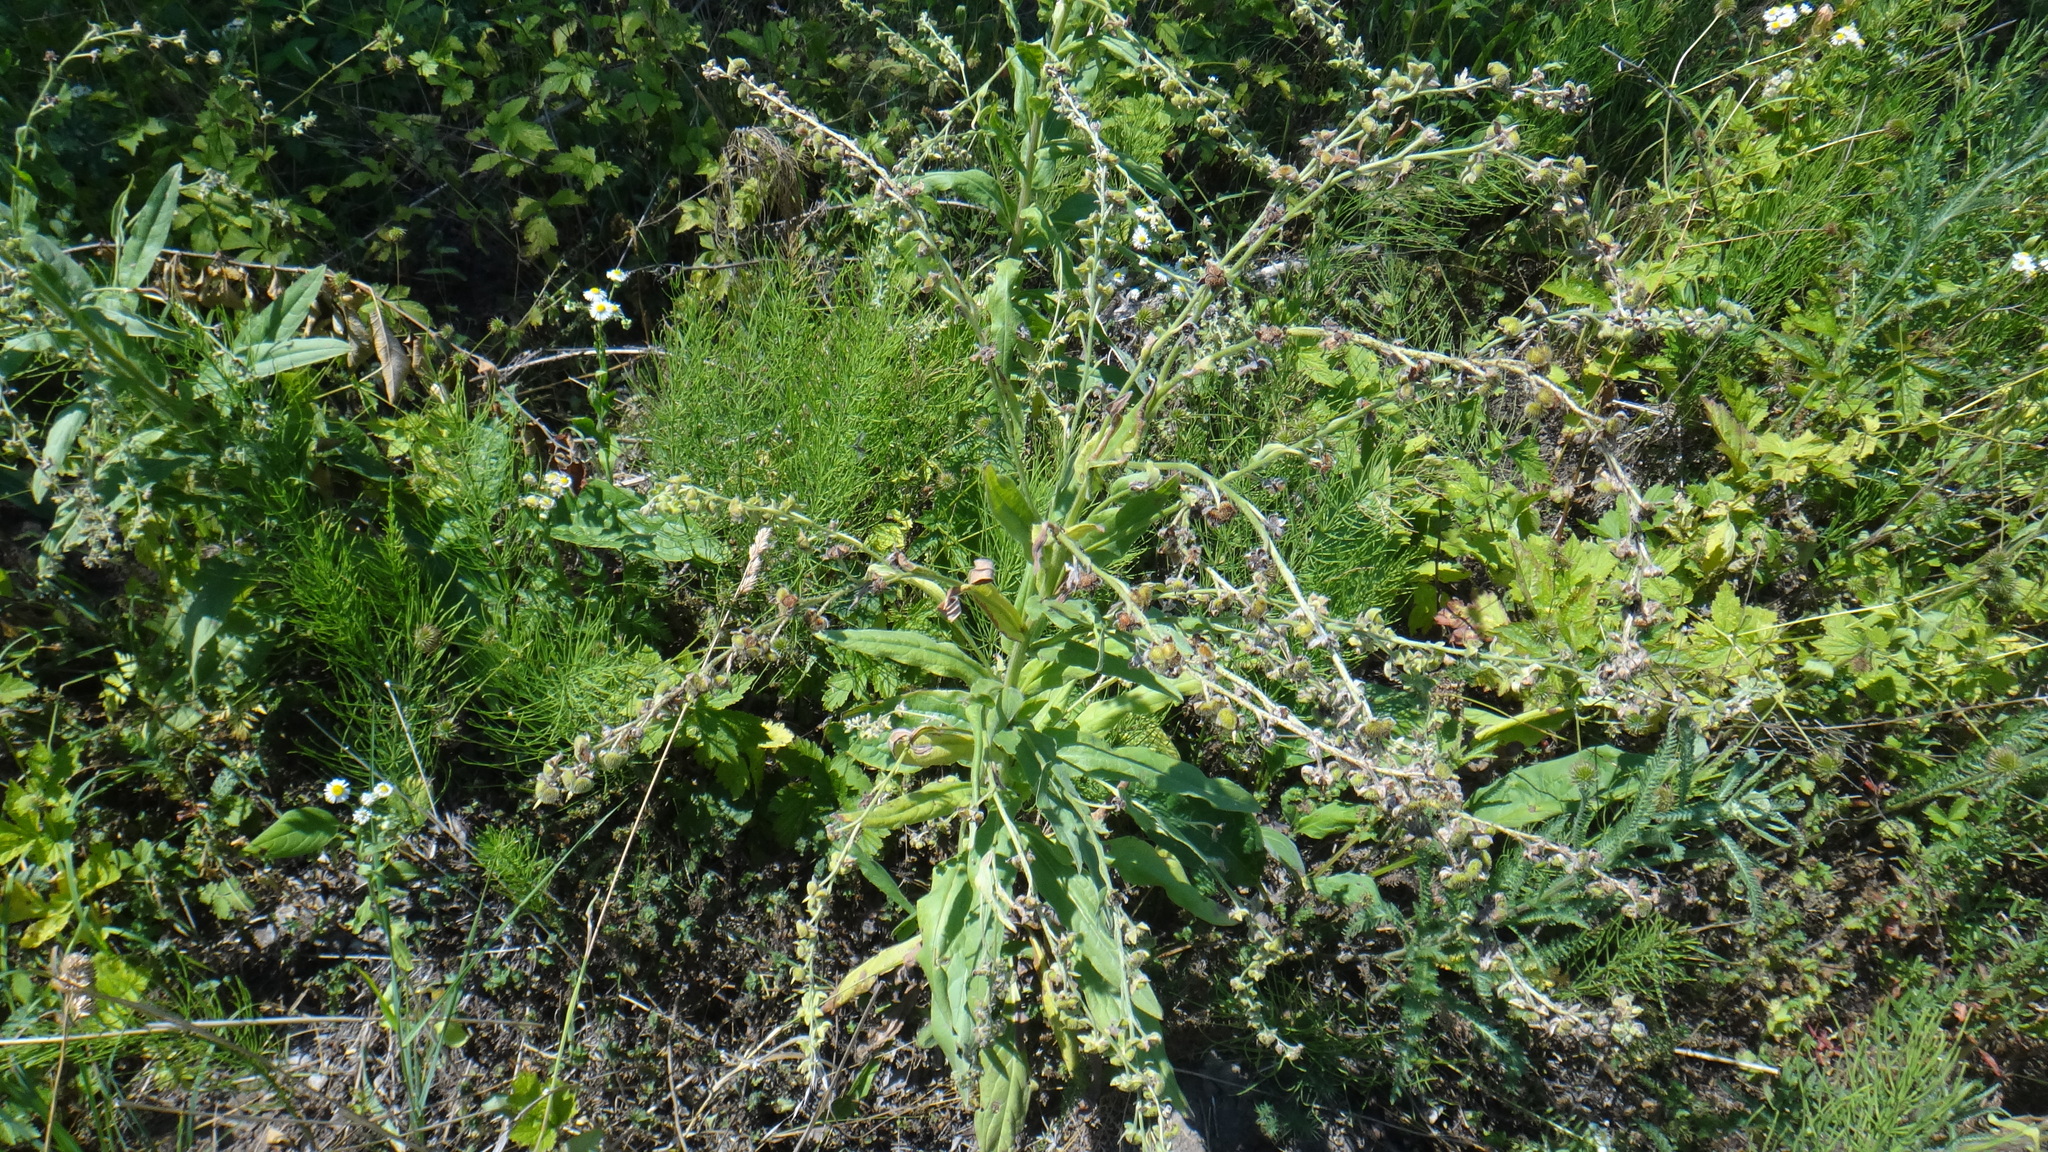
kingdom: Plantae
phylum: Tracheophyta
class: Magnoliopsida
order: Boraginales
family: Boraginaceae
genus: Cynoglossum
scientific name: Cynoglossum officinale
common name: Hound's-tongue
